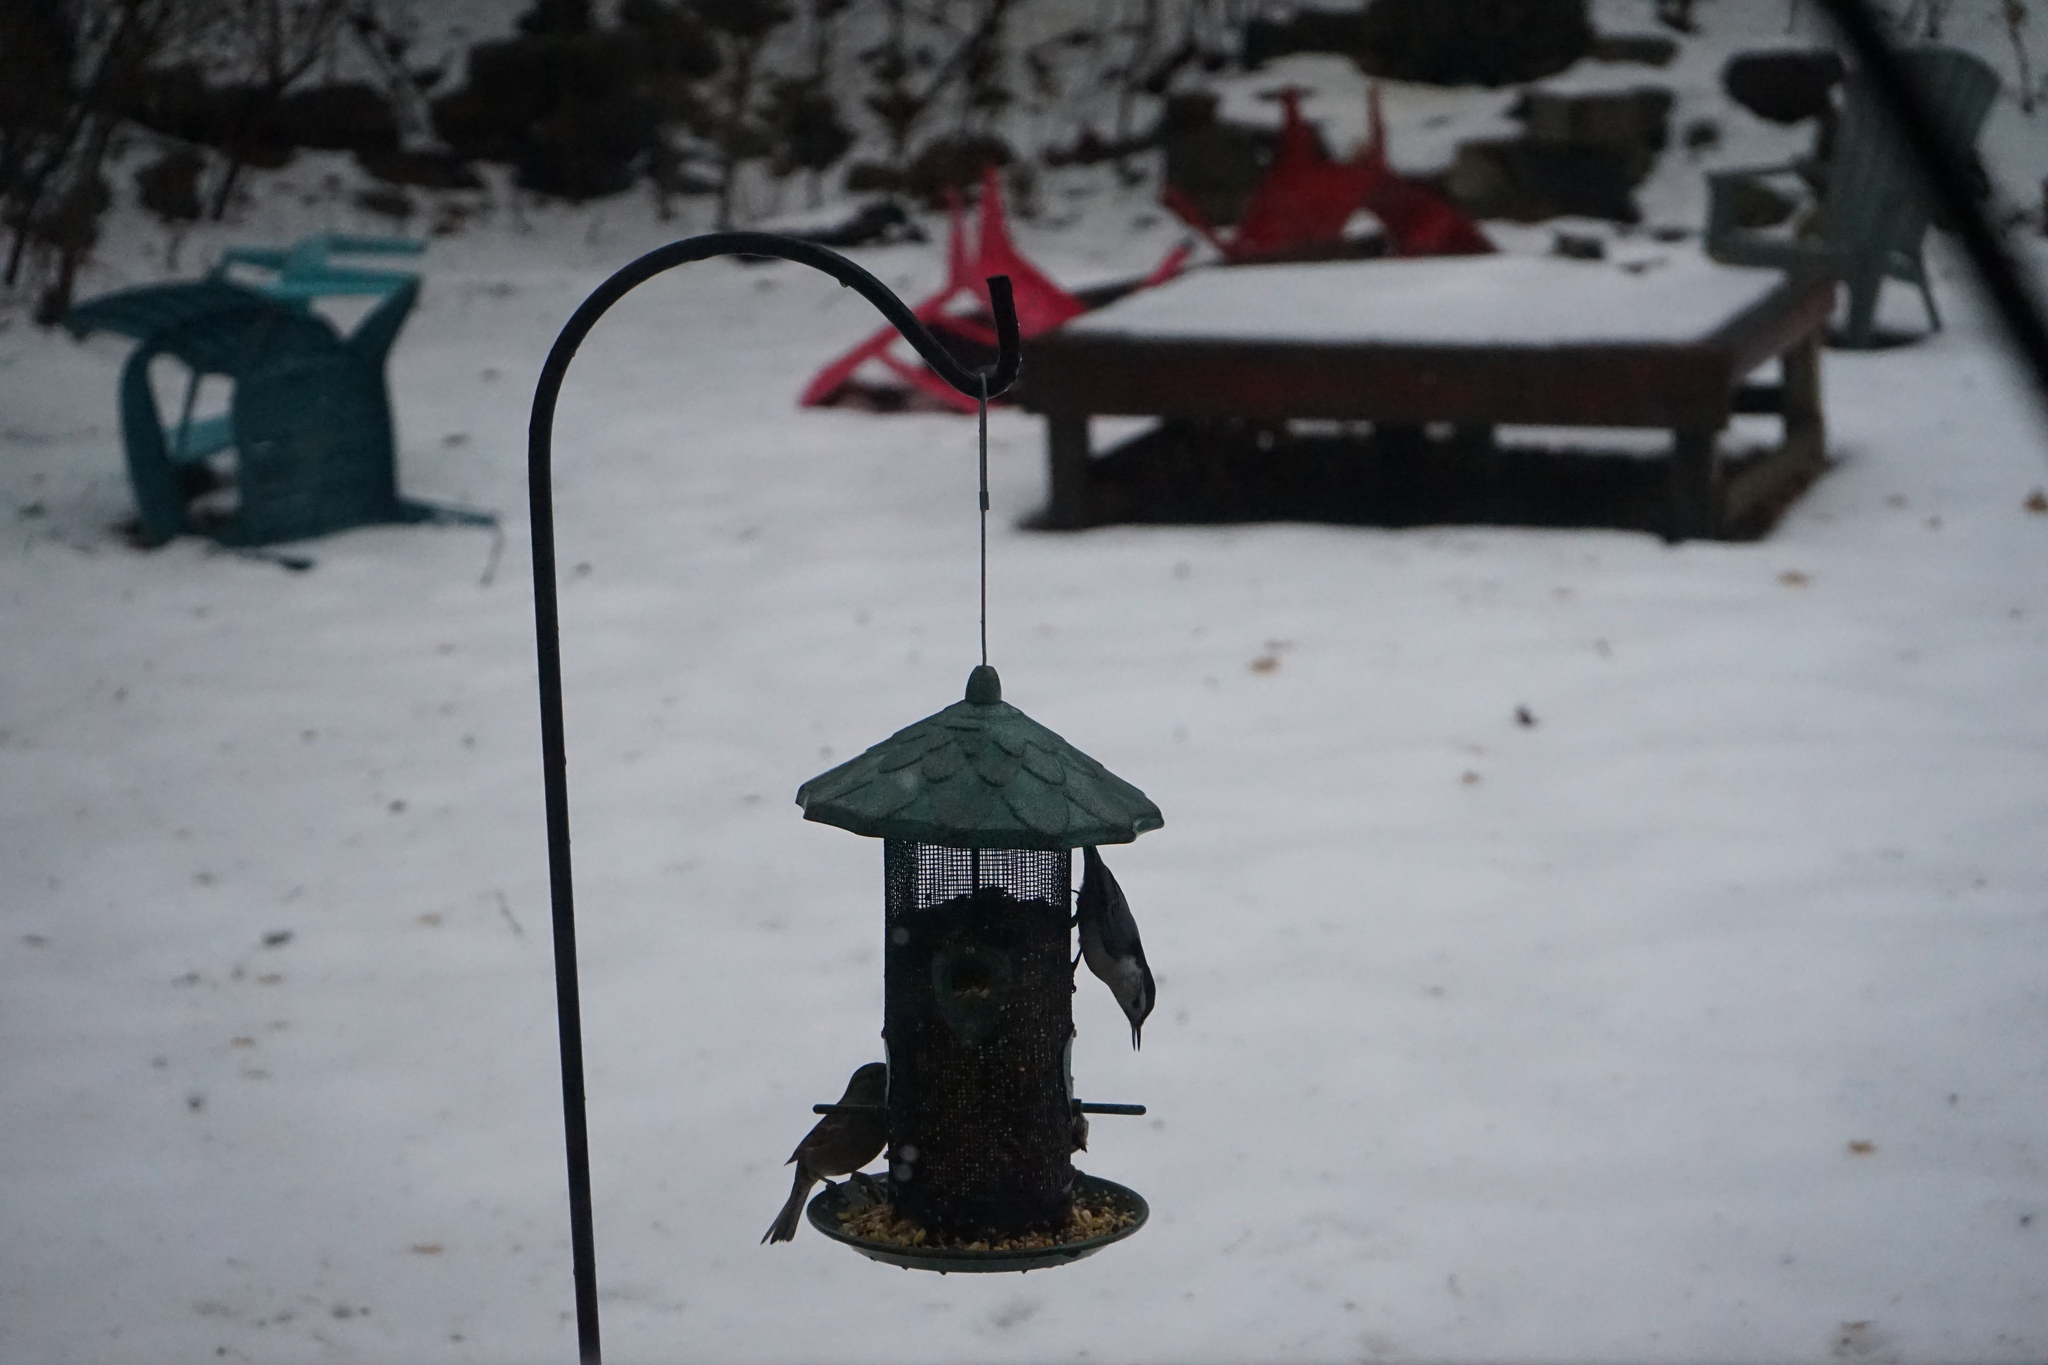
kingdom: Animalia
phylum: Chordata
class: Aves
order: Passeriformes
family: Sittidae
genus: Sitta
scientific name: Sitta carolinensis
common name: White-breasted nuthatch
